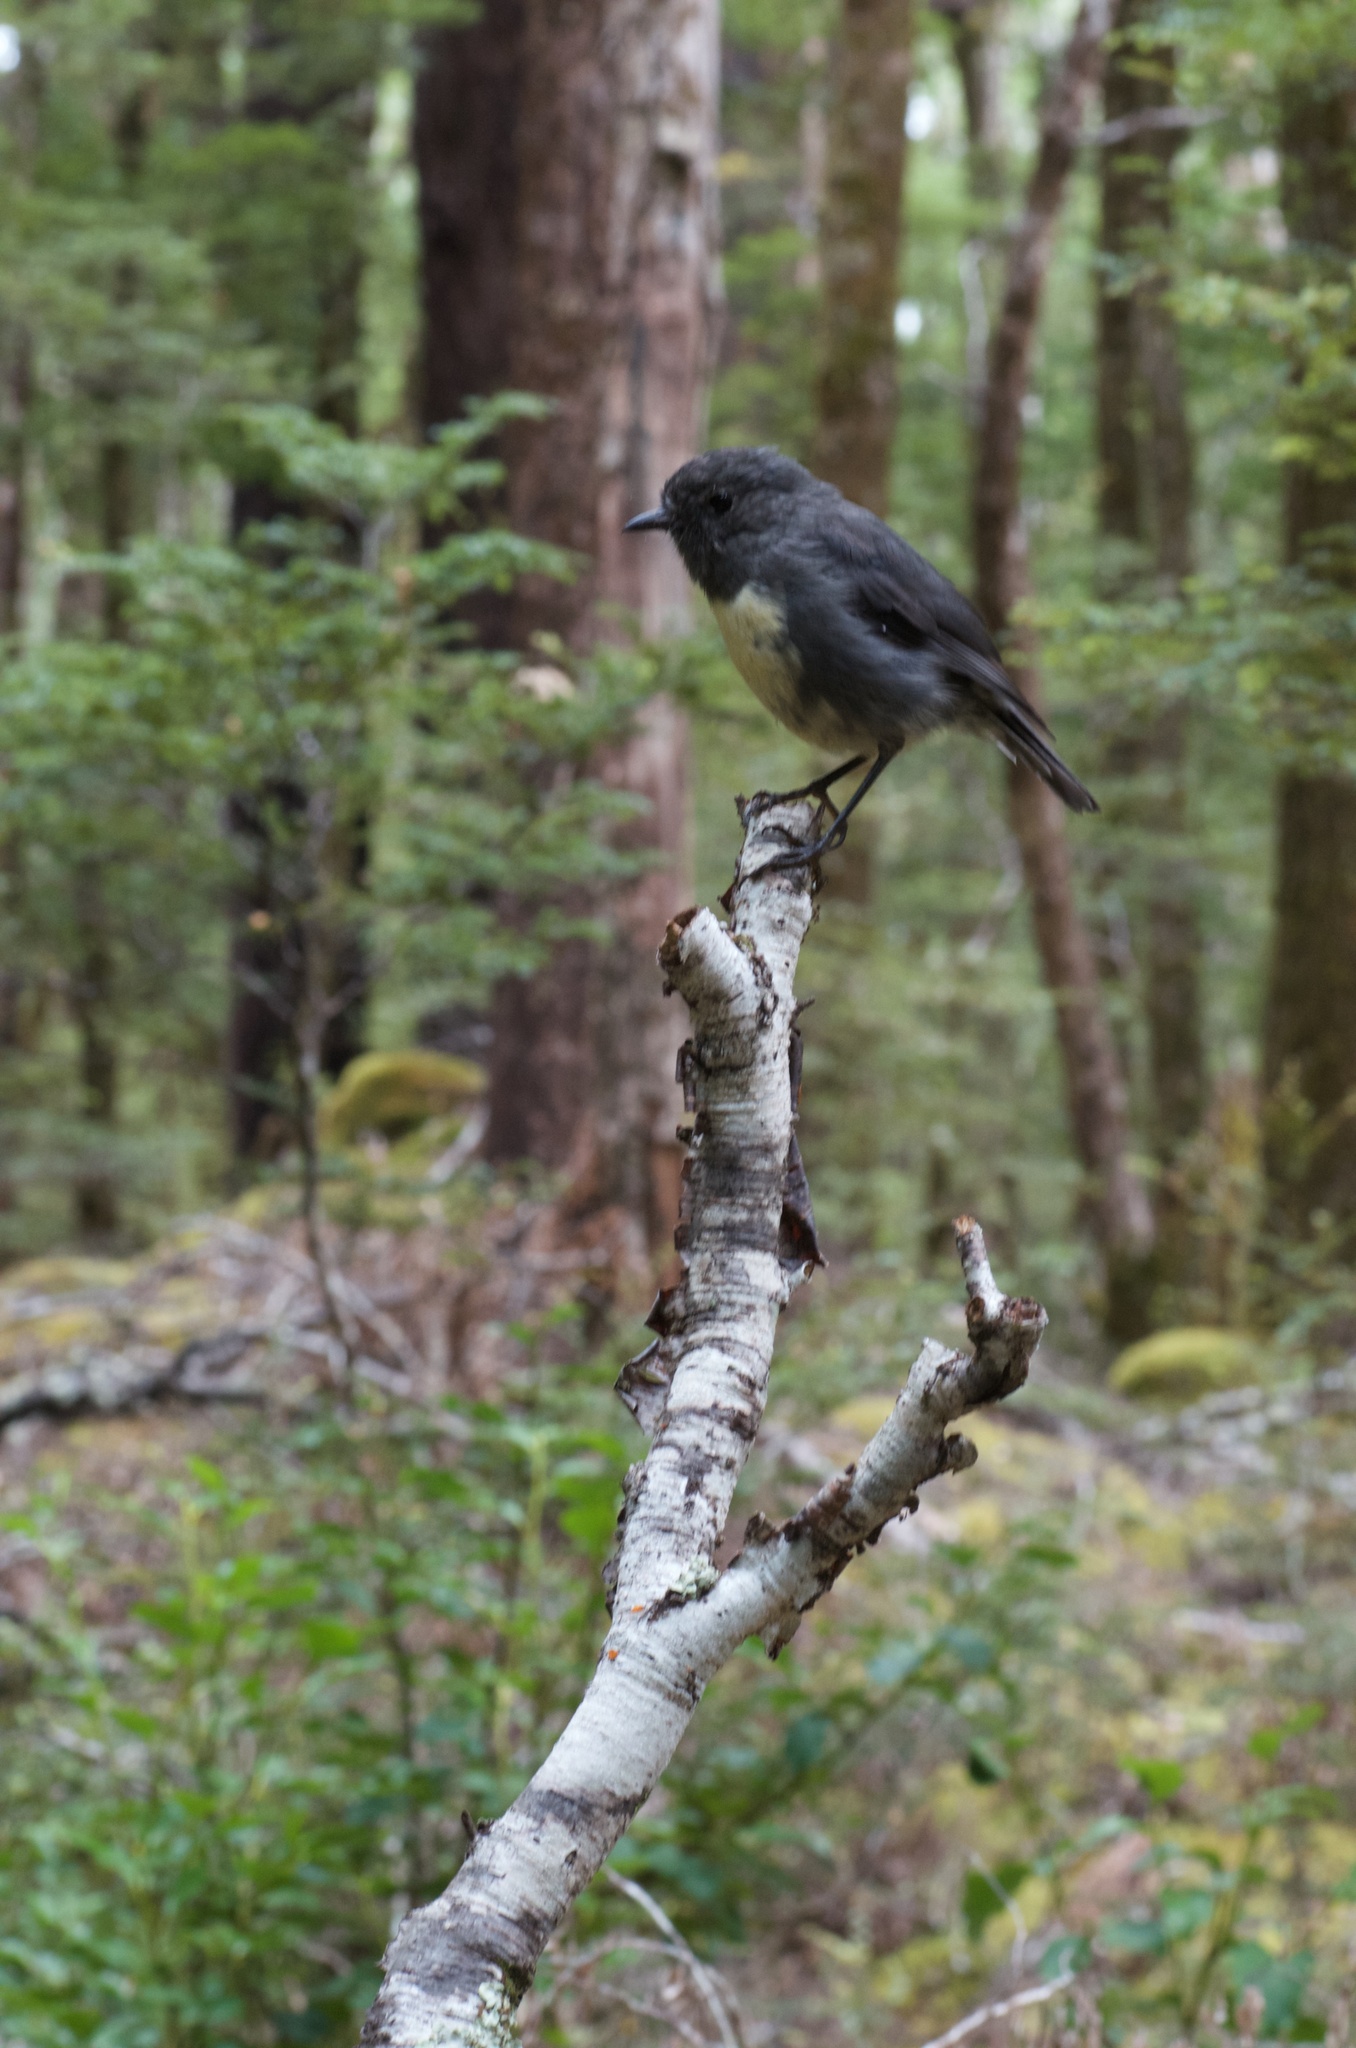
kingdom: Animalia
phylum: Chordata
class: Aves
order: Passeriformes
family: Petroicidae
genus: Petroica
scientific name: Petroica australis
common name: New zealand robin
